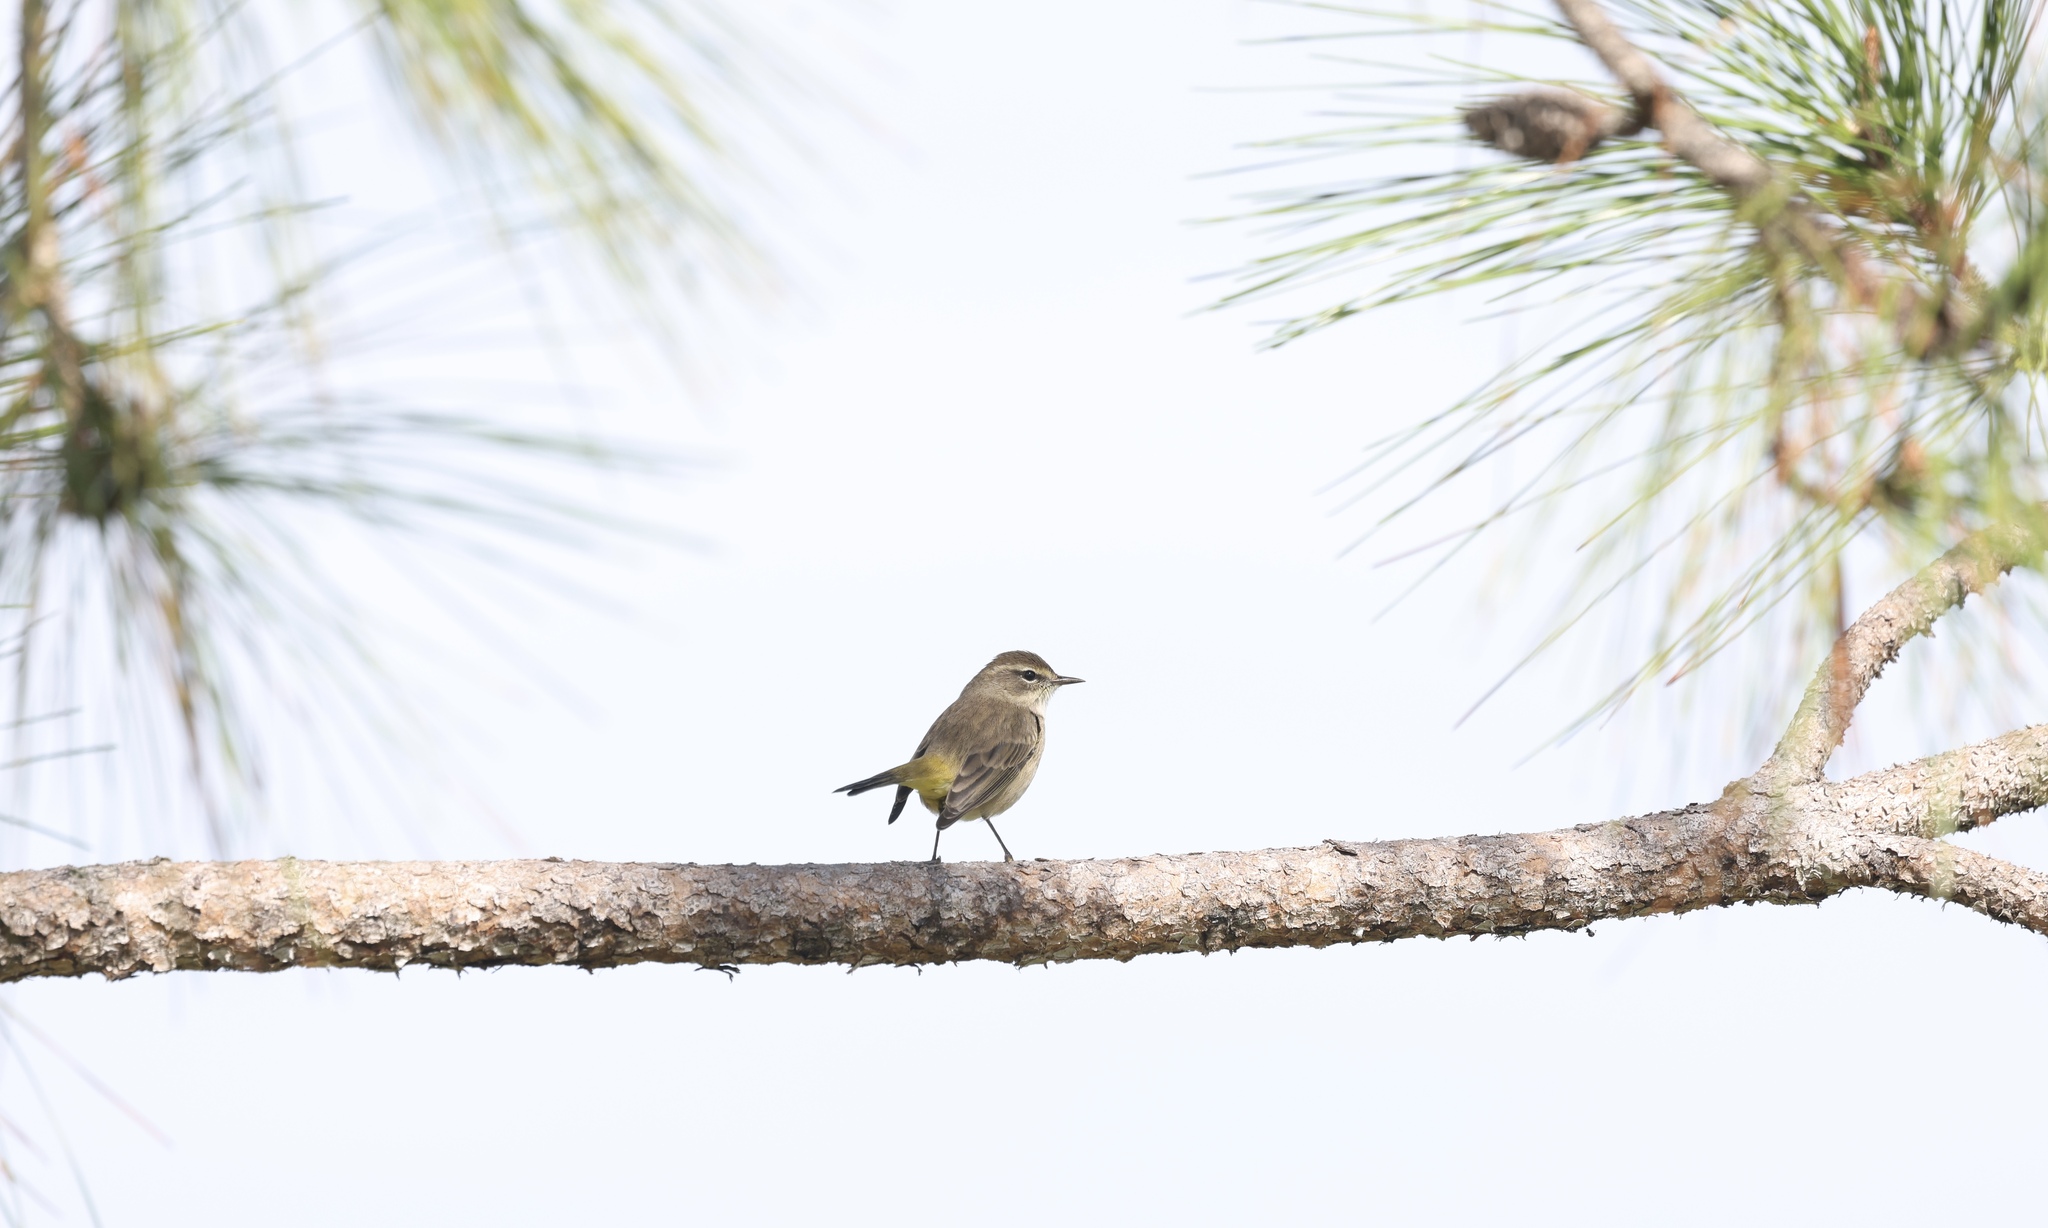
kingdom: Animalia
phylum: Chordata
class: Aves
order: Passeriformes
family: Parulidae
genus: Setophaga
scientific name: Setophaga palmarum
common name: Palm warbler
